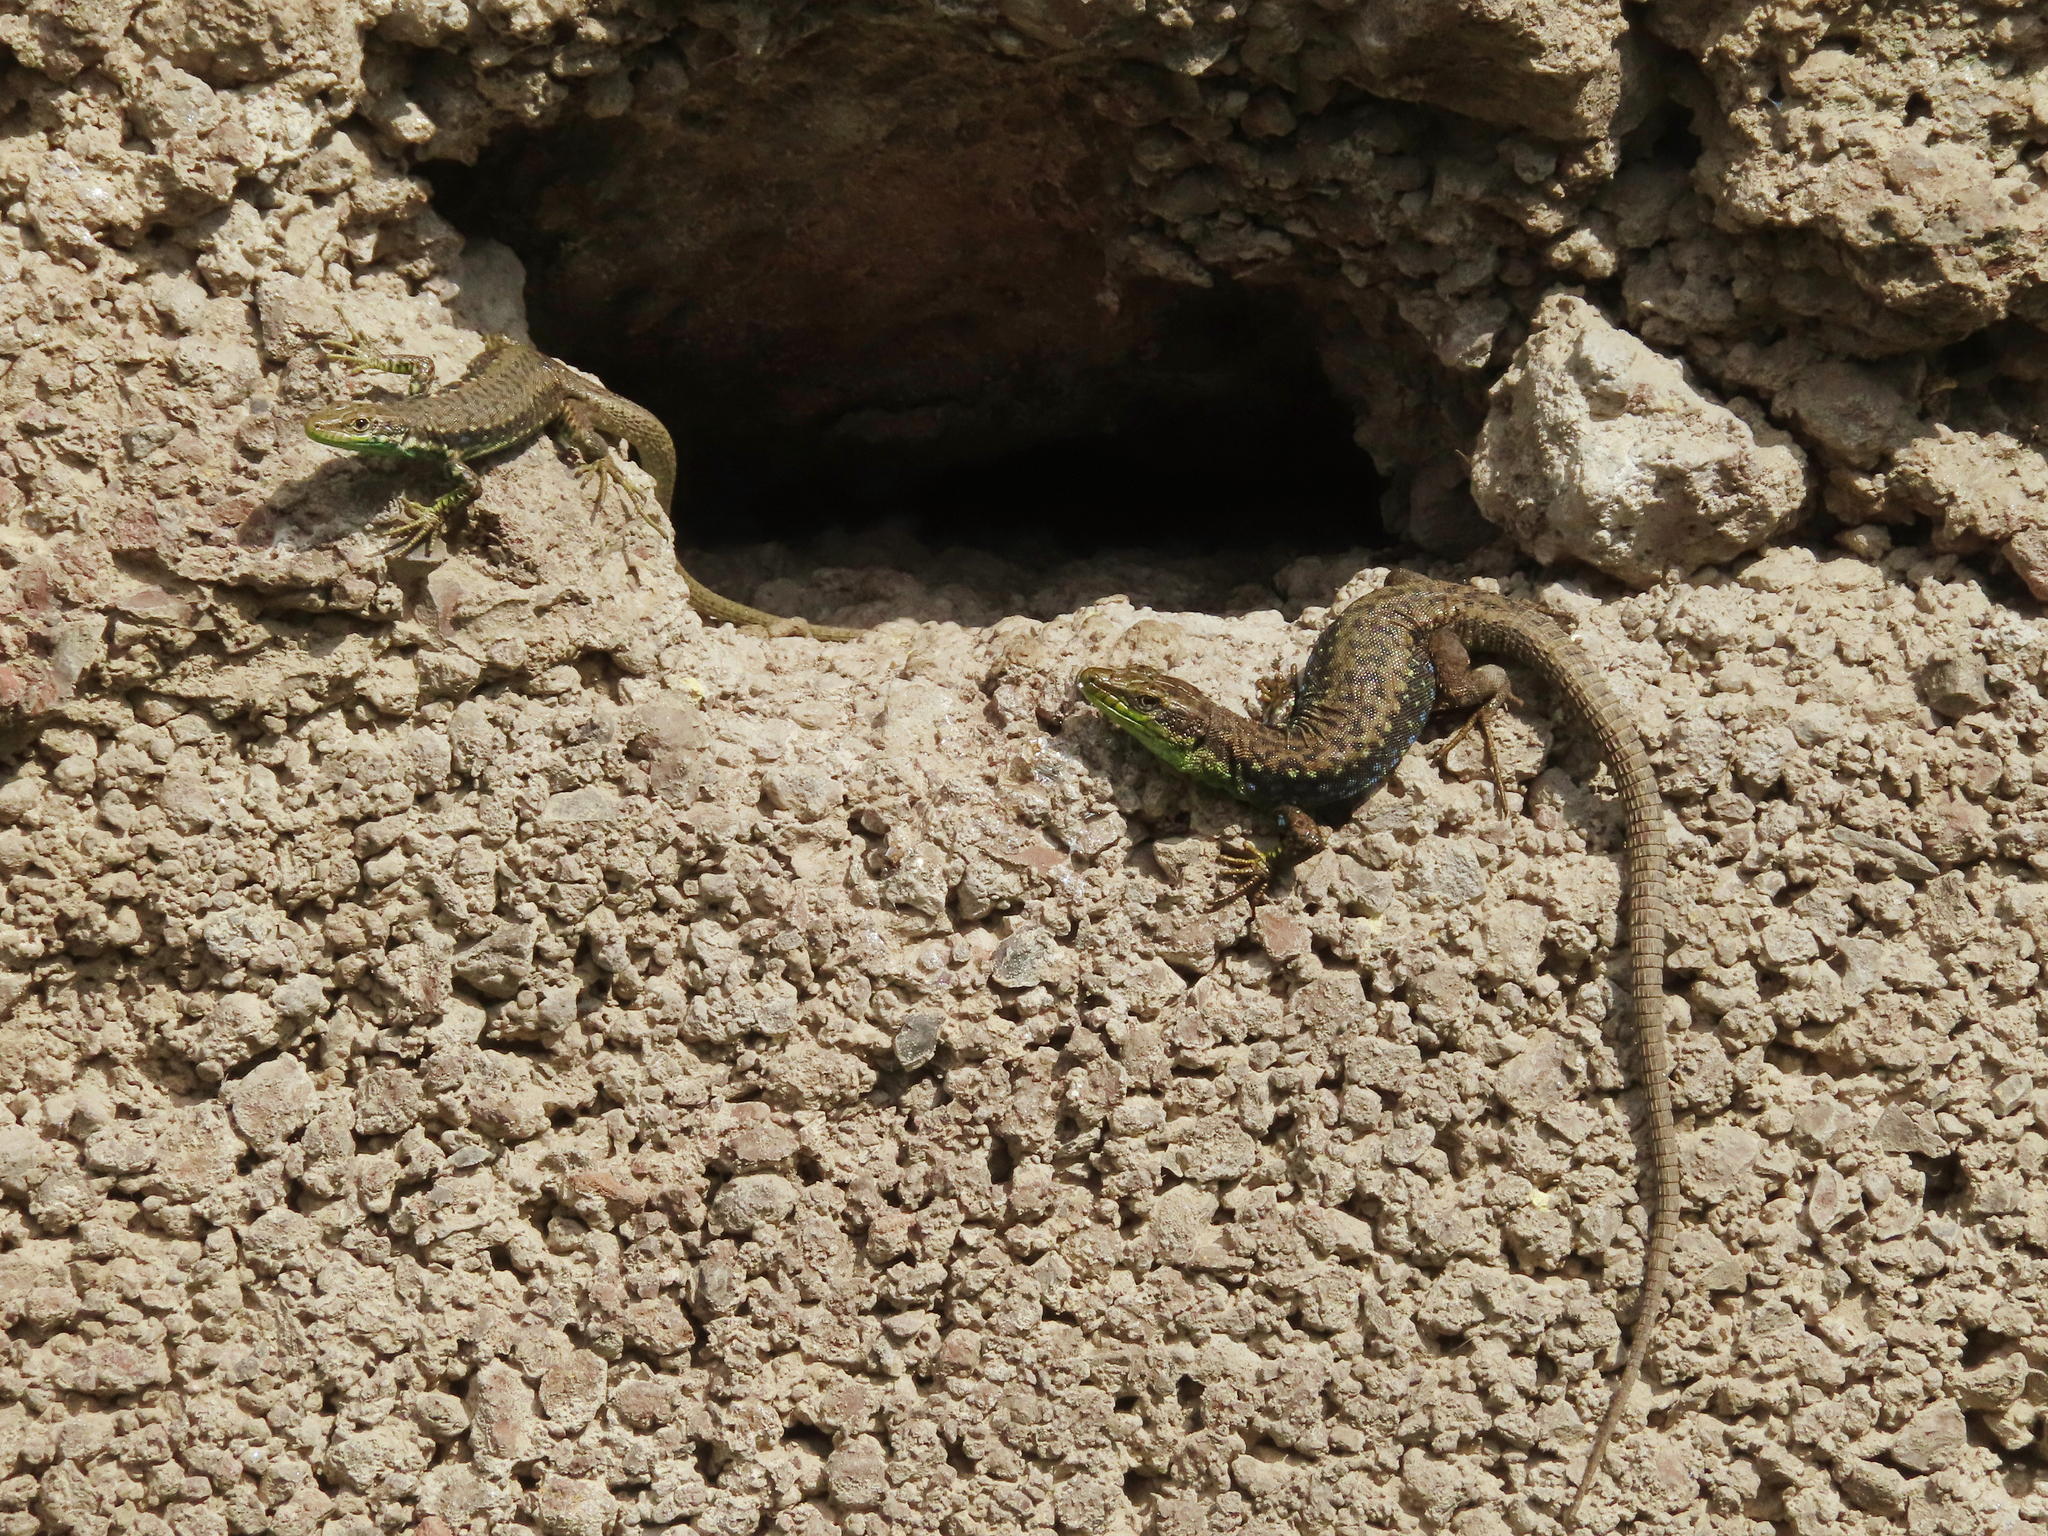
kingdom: Animalia
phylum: Chordata
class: Squamata
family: Lacertidae
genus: Darevskia
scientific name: Darevskia raddei
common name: Radde's lizard
